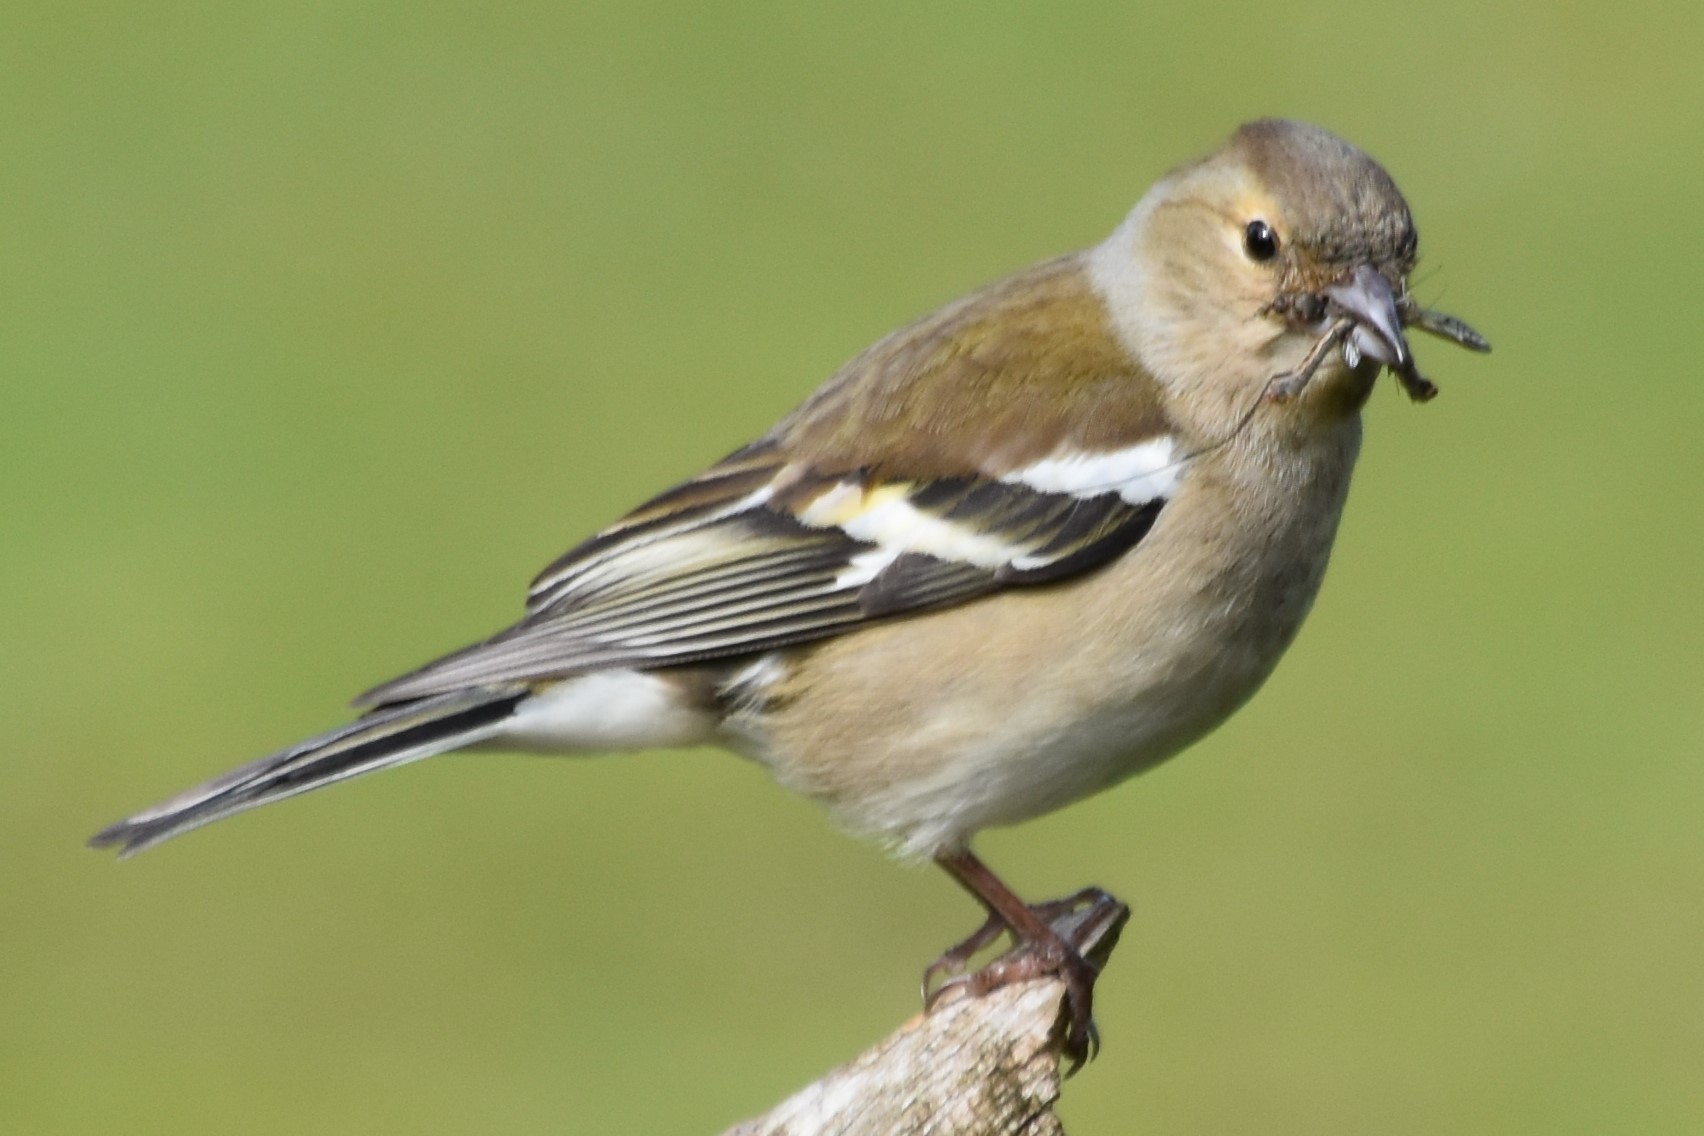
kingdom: Animalia
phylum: Chordata
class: Aves
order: Passeriformes
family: Fringillidae
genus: Fringilla
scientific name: Fringilla coelebs
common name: Common chaffinch
